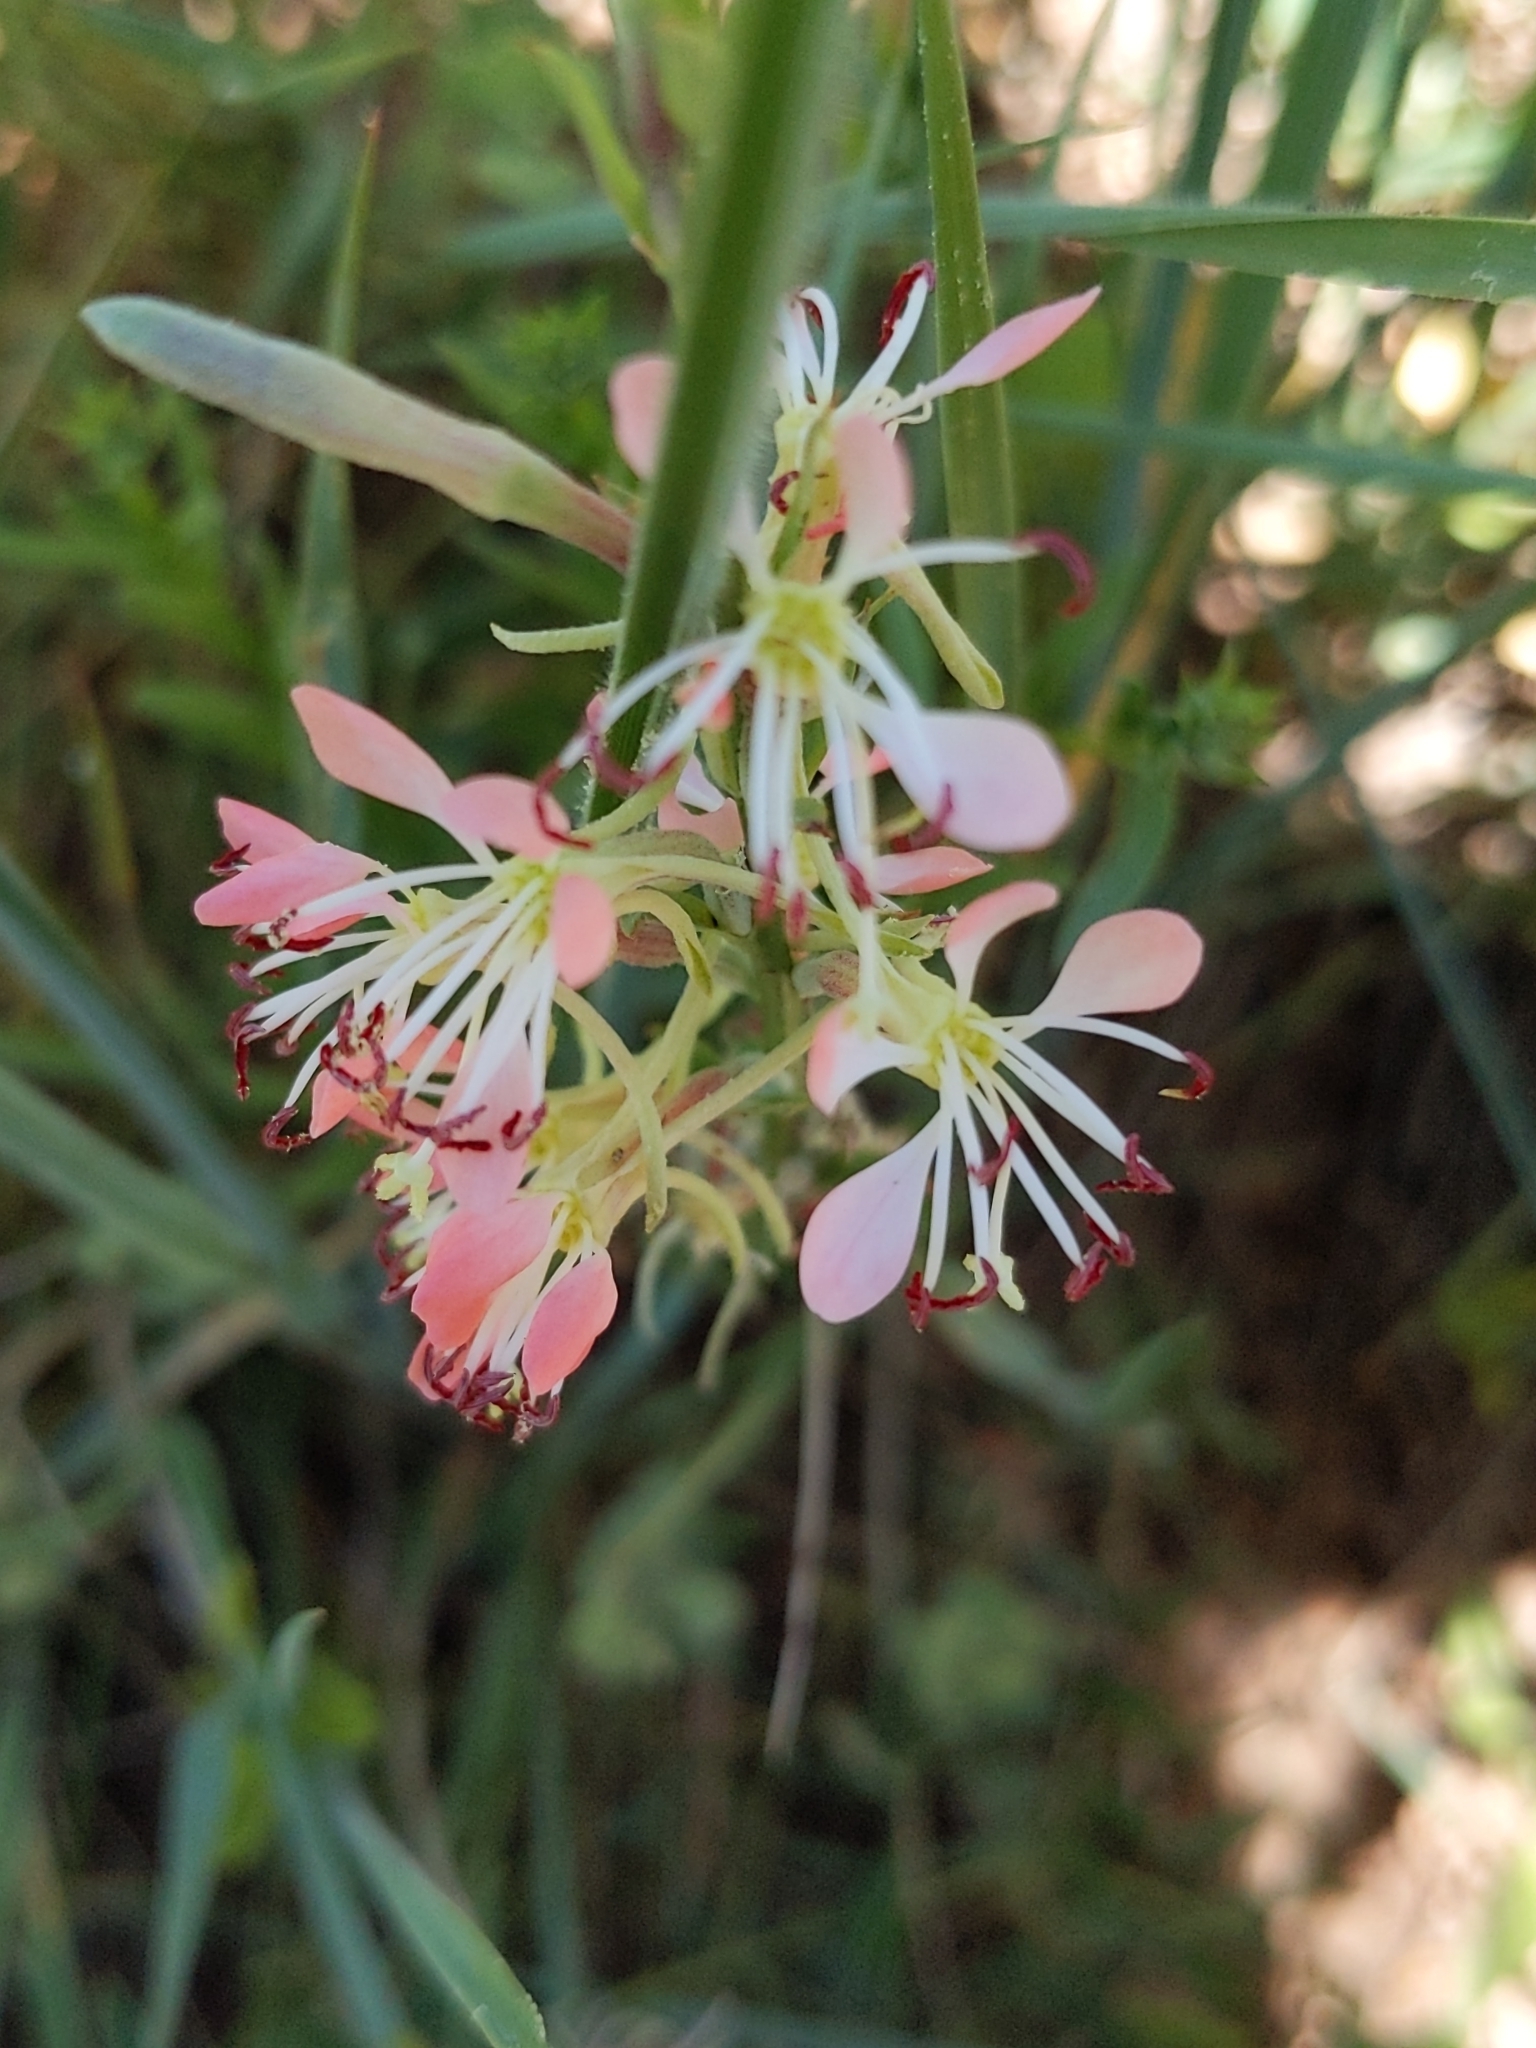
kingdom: Plantae
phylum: Tracheophyta
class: Magnoliopsida
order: Myrtales
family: Onagraceae
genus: Oenothera
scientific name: Oenothera suffrutescens
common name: Scarlet beeblossom
